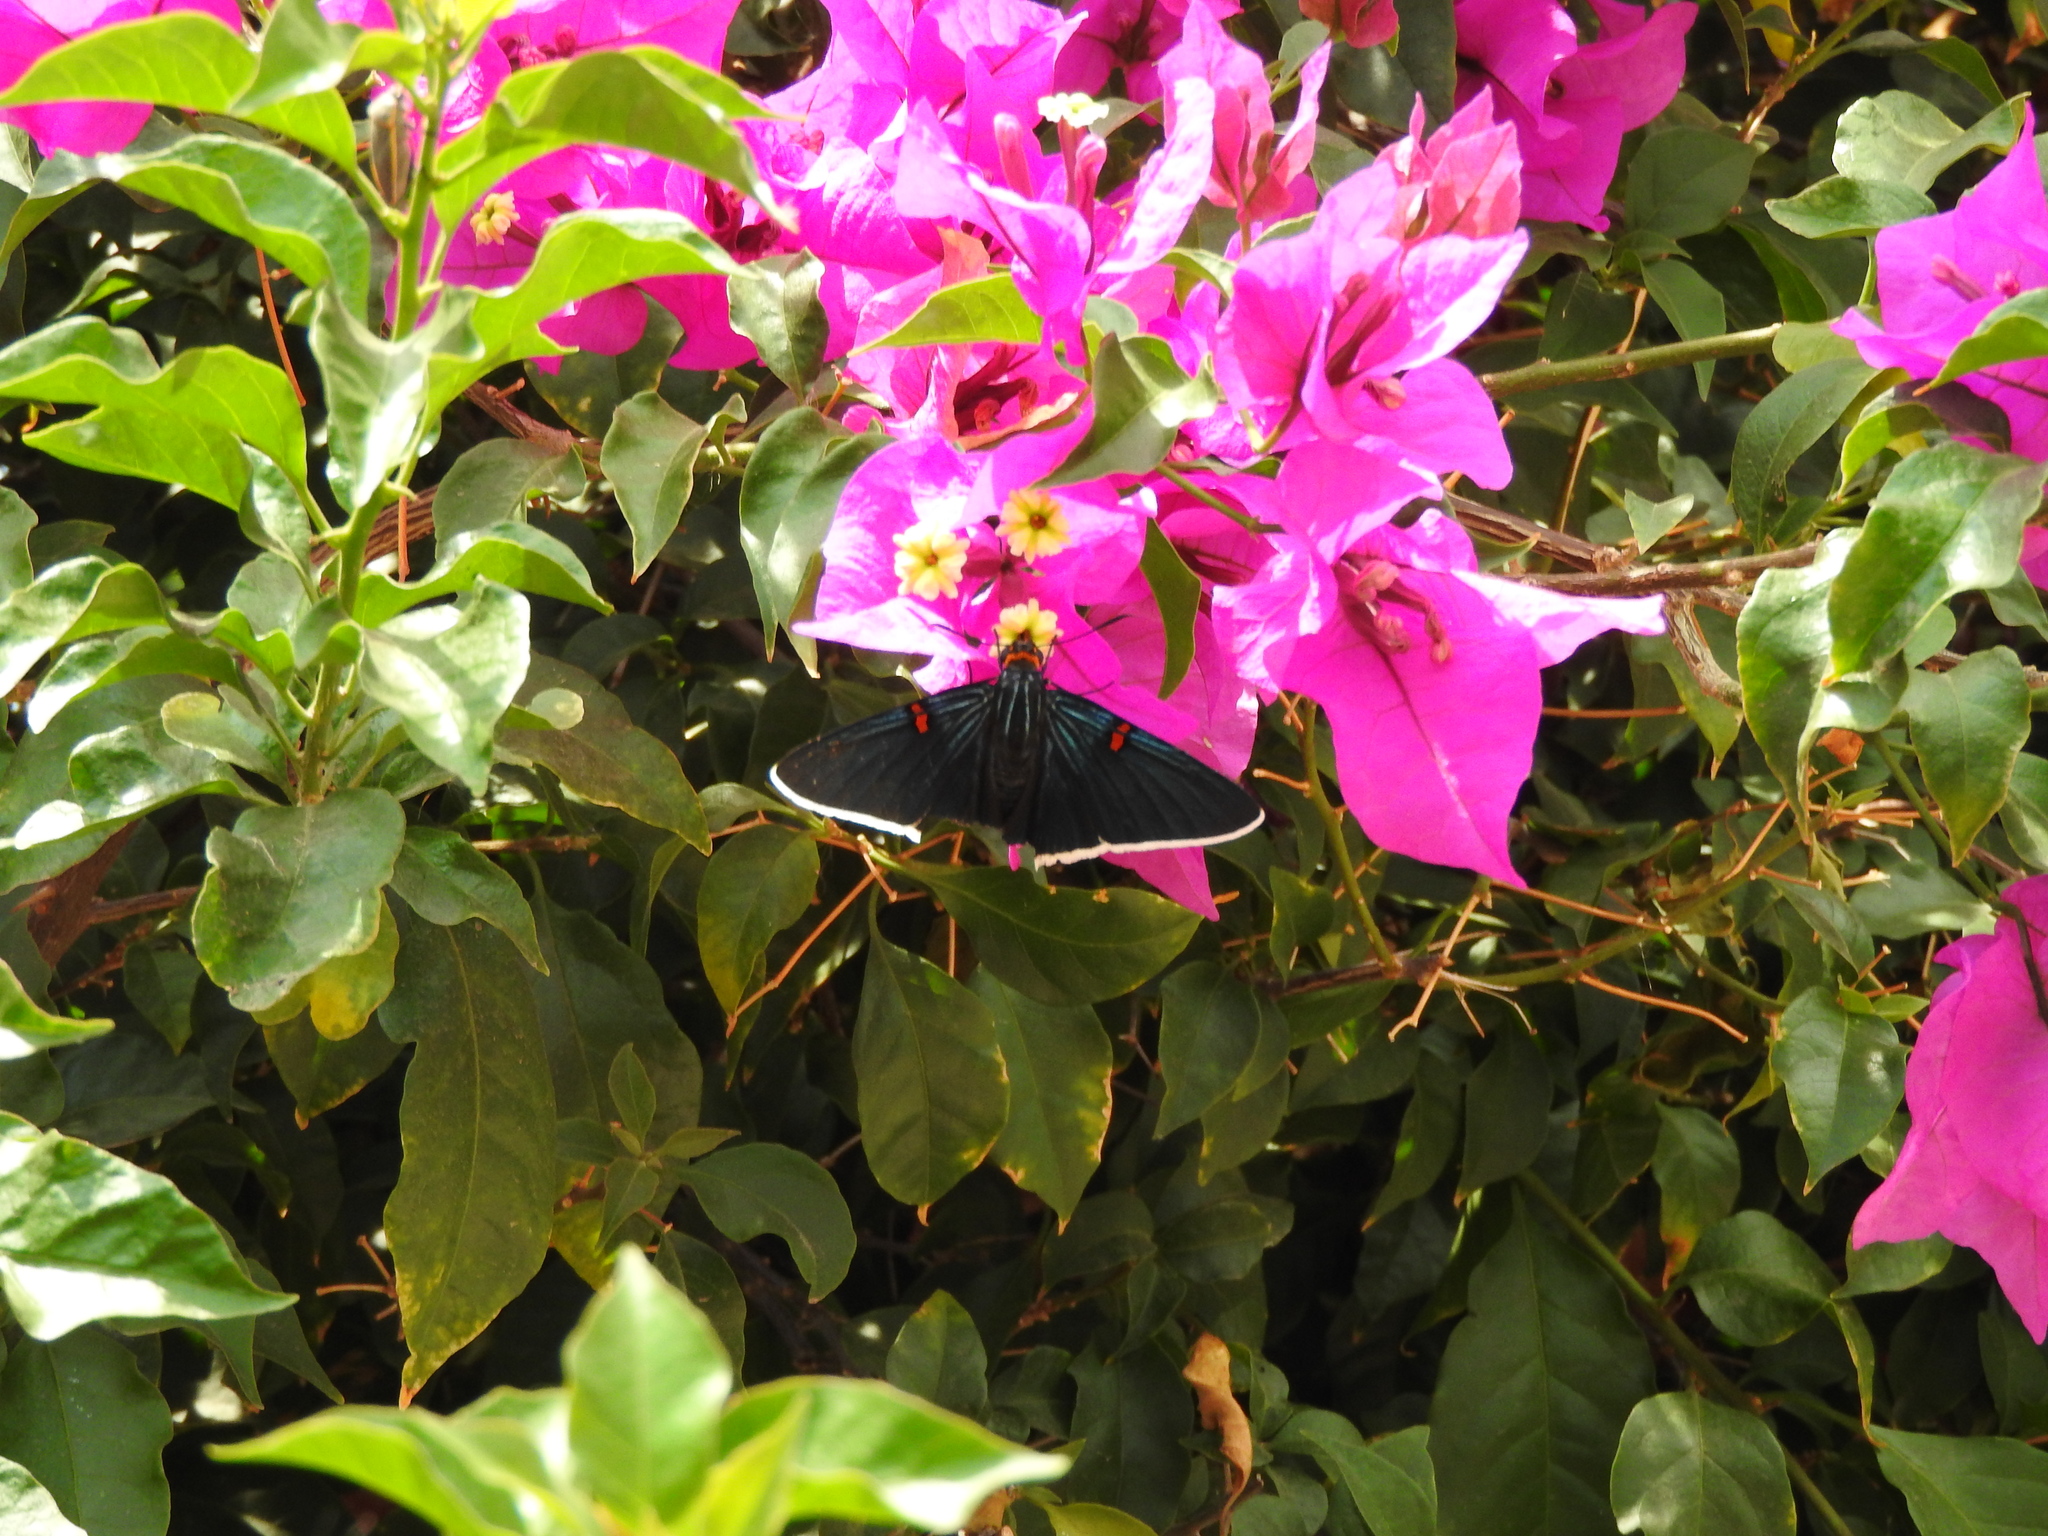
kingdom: Animalia
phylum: Arthropoda
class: Insecta
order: Lepidoptera
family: Hesperiidae
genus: Phocides
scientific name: Phocides lilea
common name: Guava skipper
